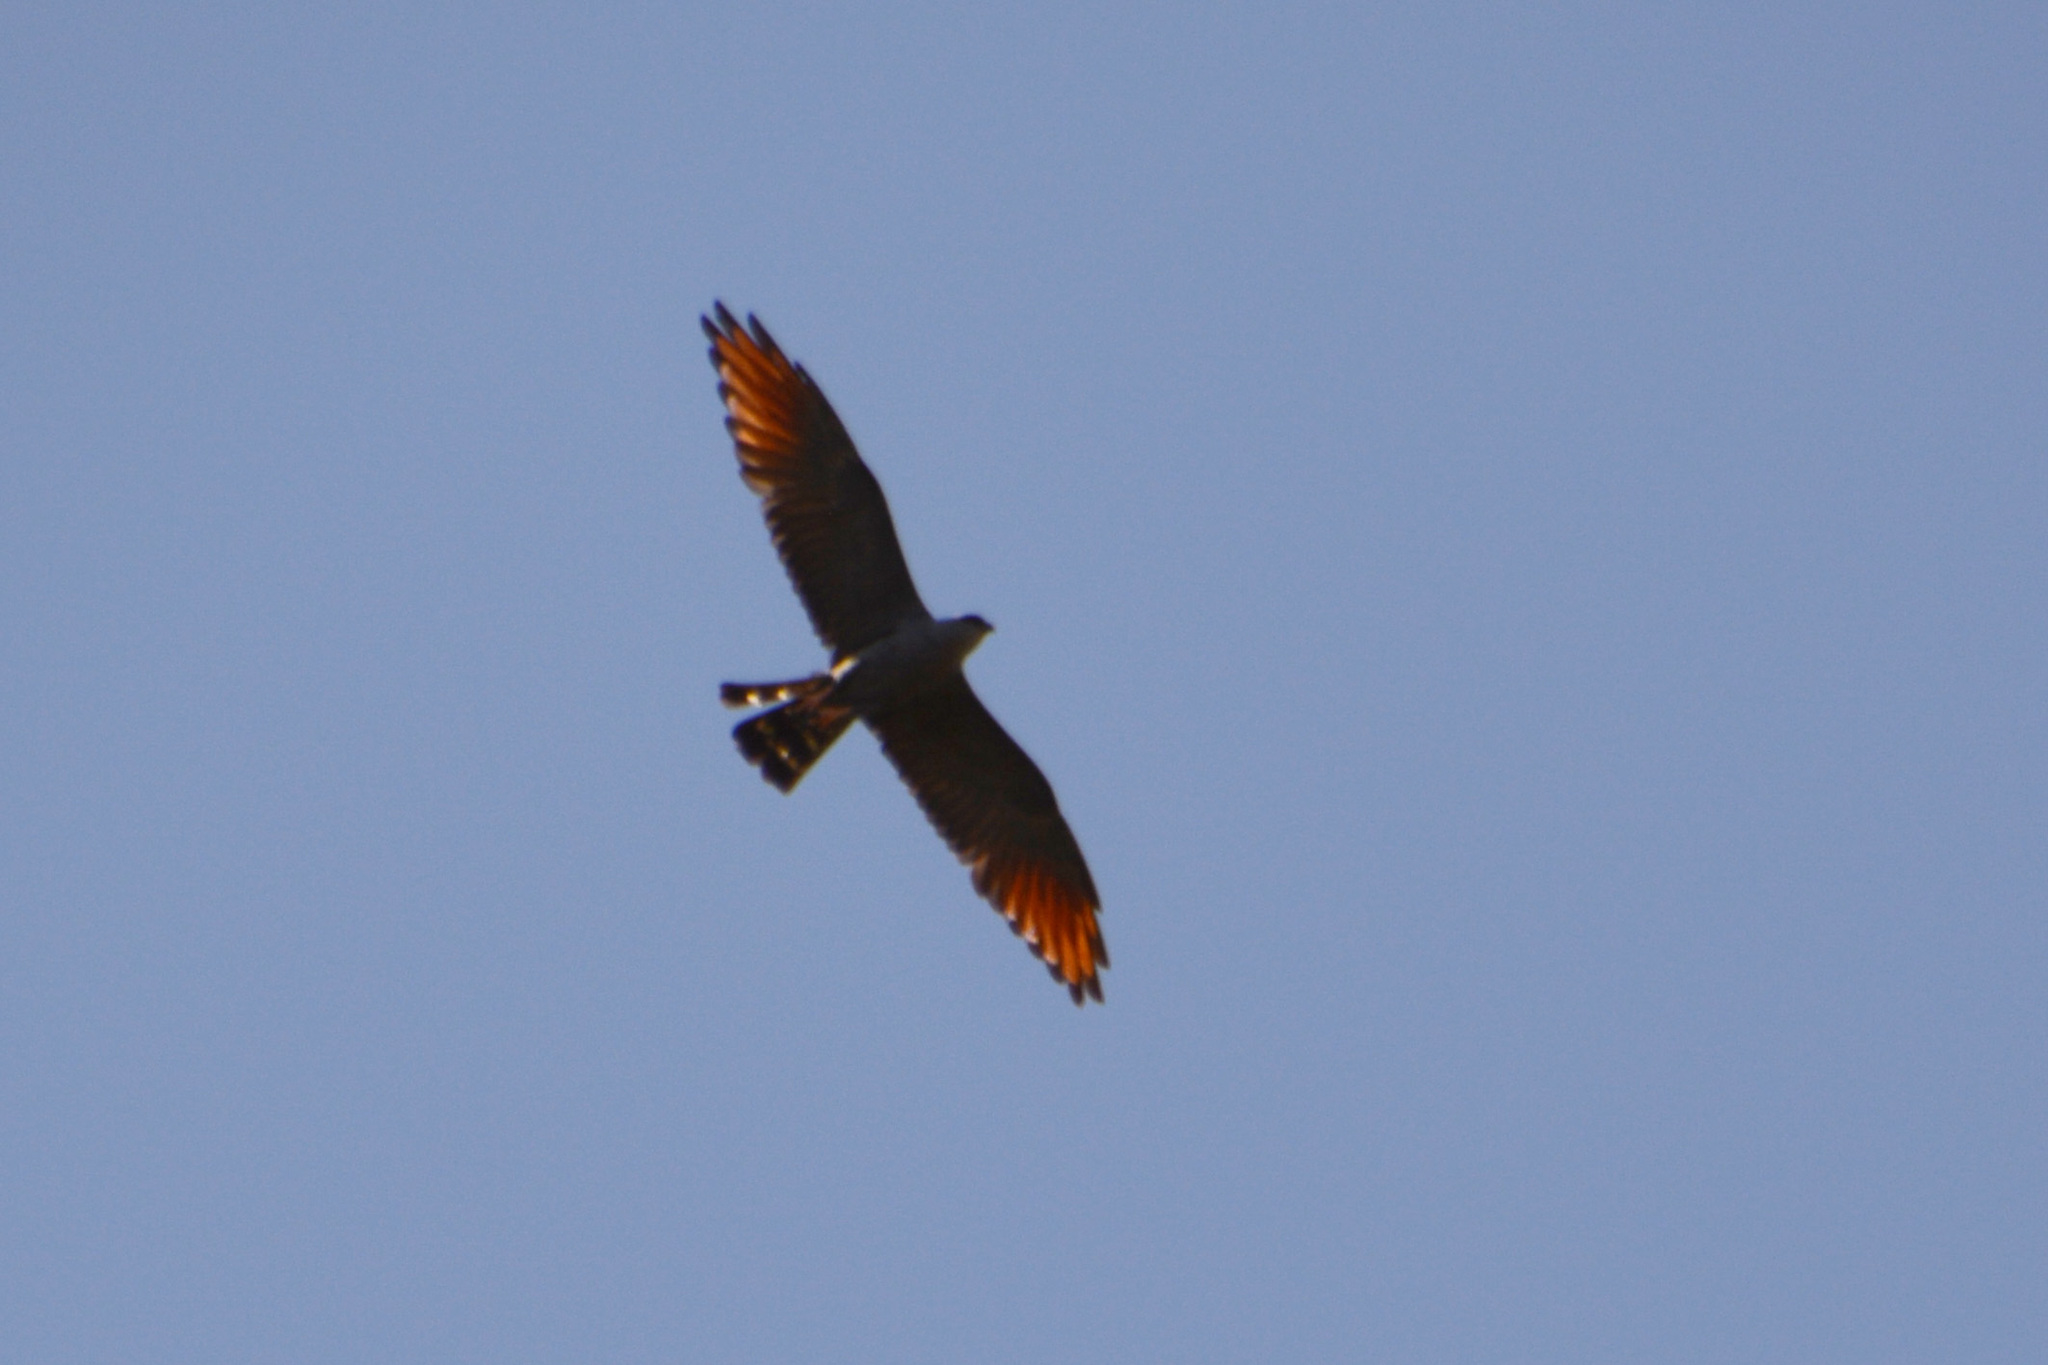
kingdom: Animalia
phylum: Chordata
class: Aves
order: Accipitriformes
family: Accipitridae
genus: Ictinia
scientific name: Ictinia plumbea
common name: Plumbeous kite
